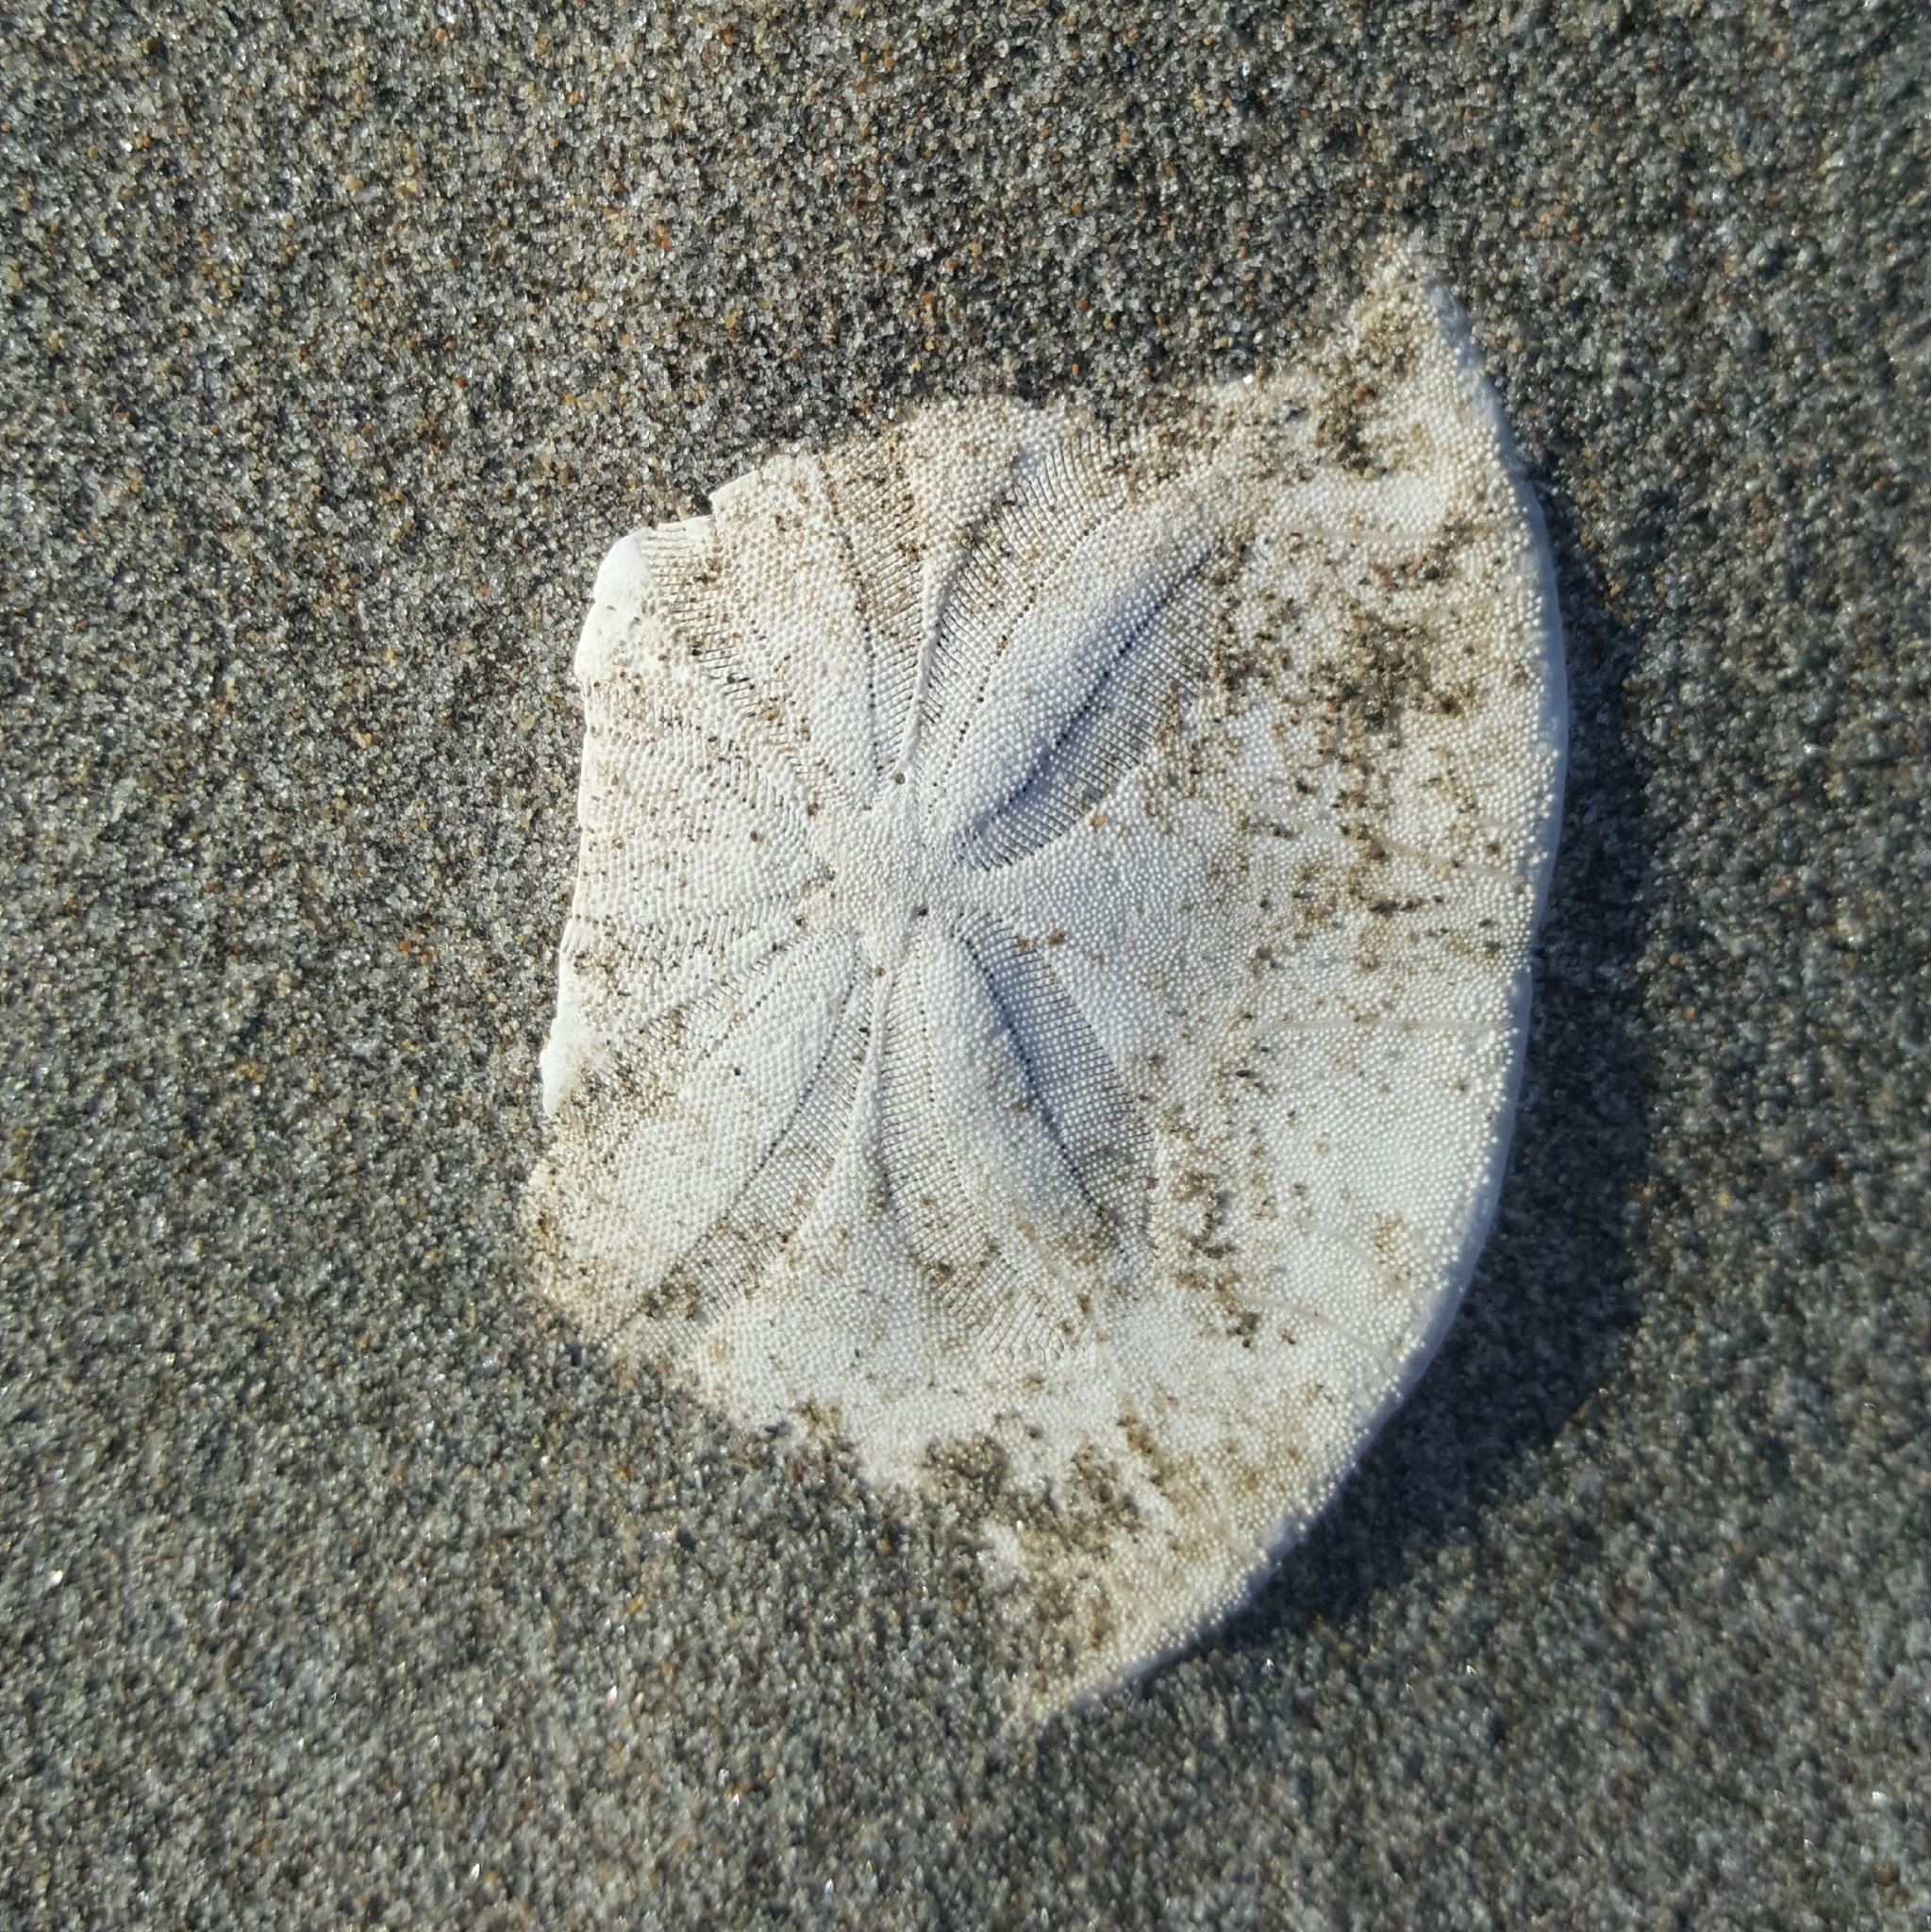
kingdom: Animalia
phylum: Echinodermata
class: Echinoidea
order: Echinolampadacea
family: Dendrasteridae
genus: Dendraster
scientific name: Dendraster excentricus
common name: Eccentric sand dollar sea urchin
